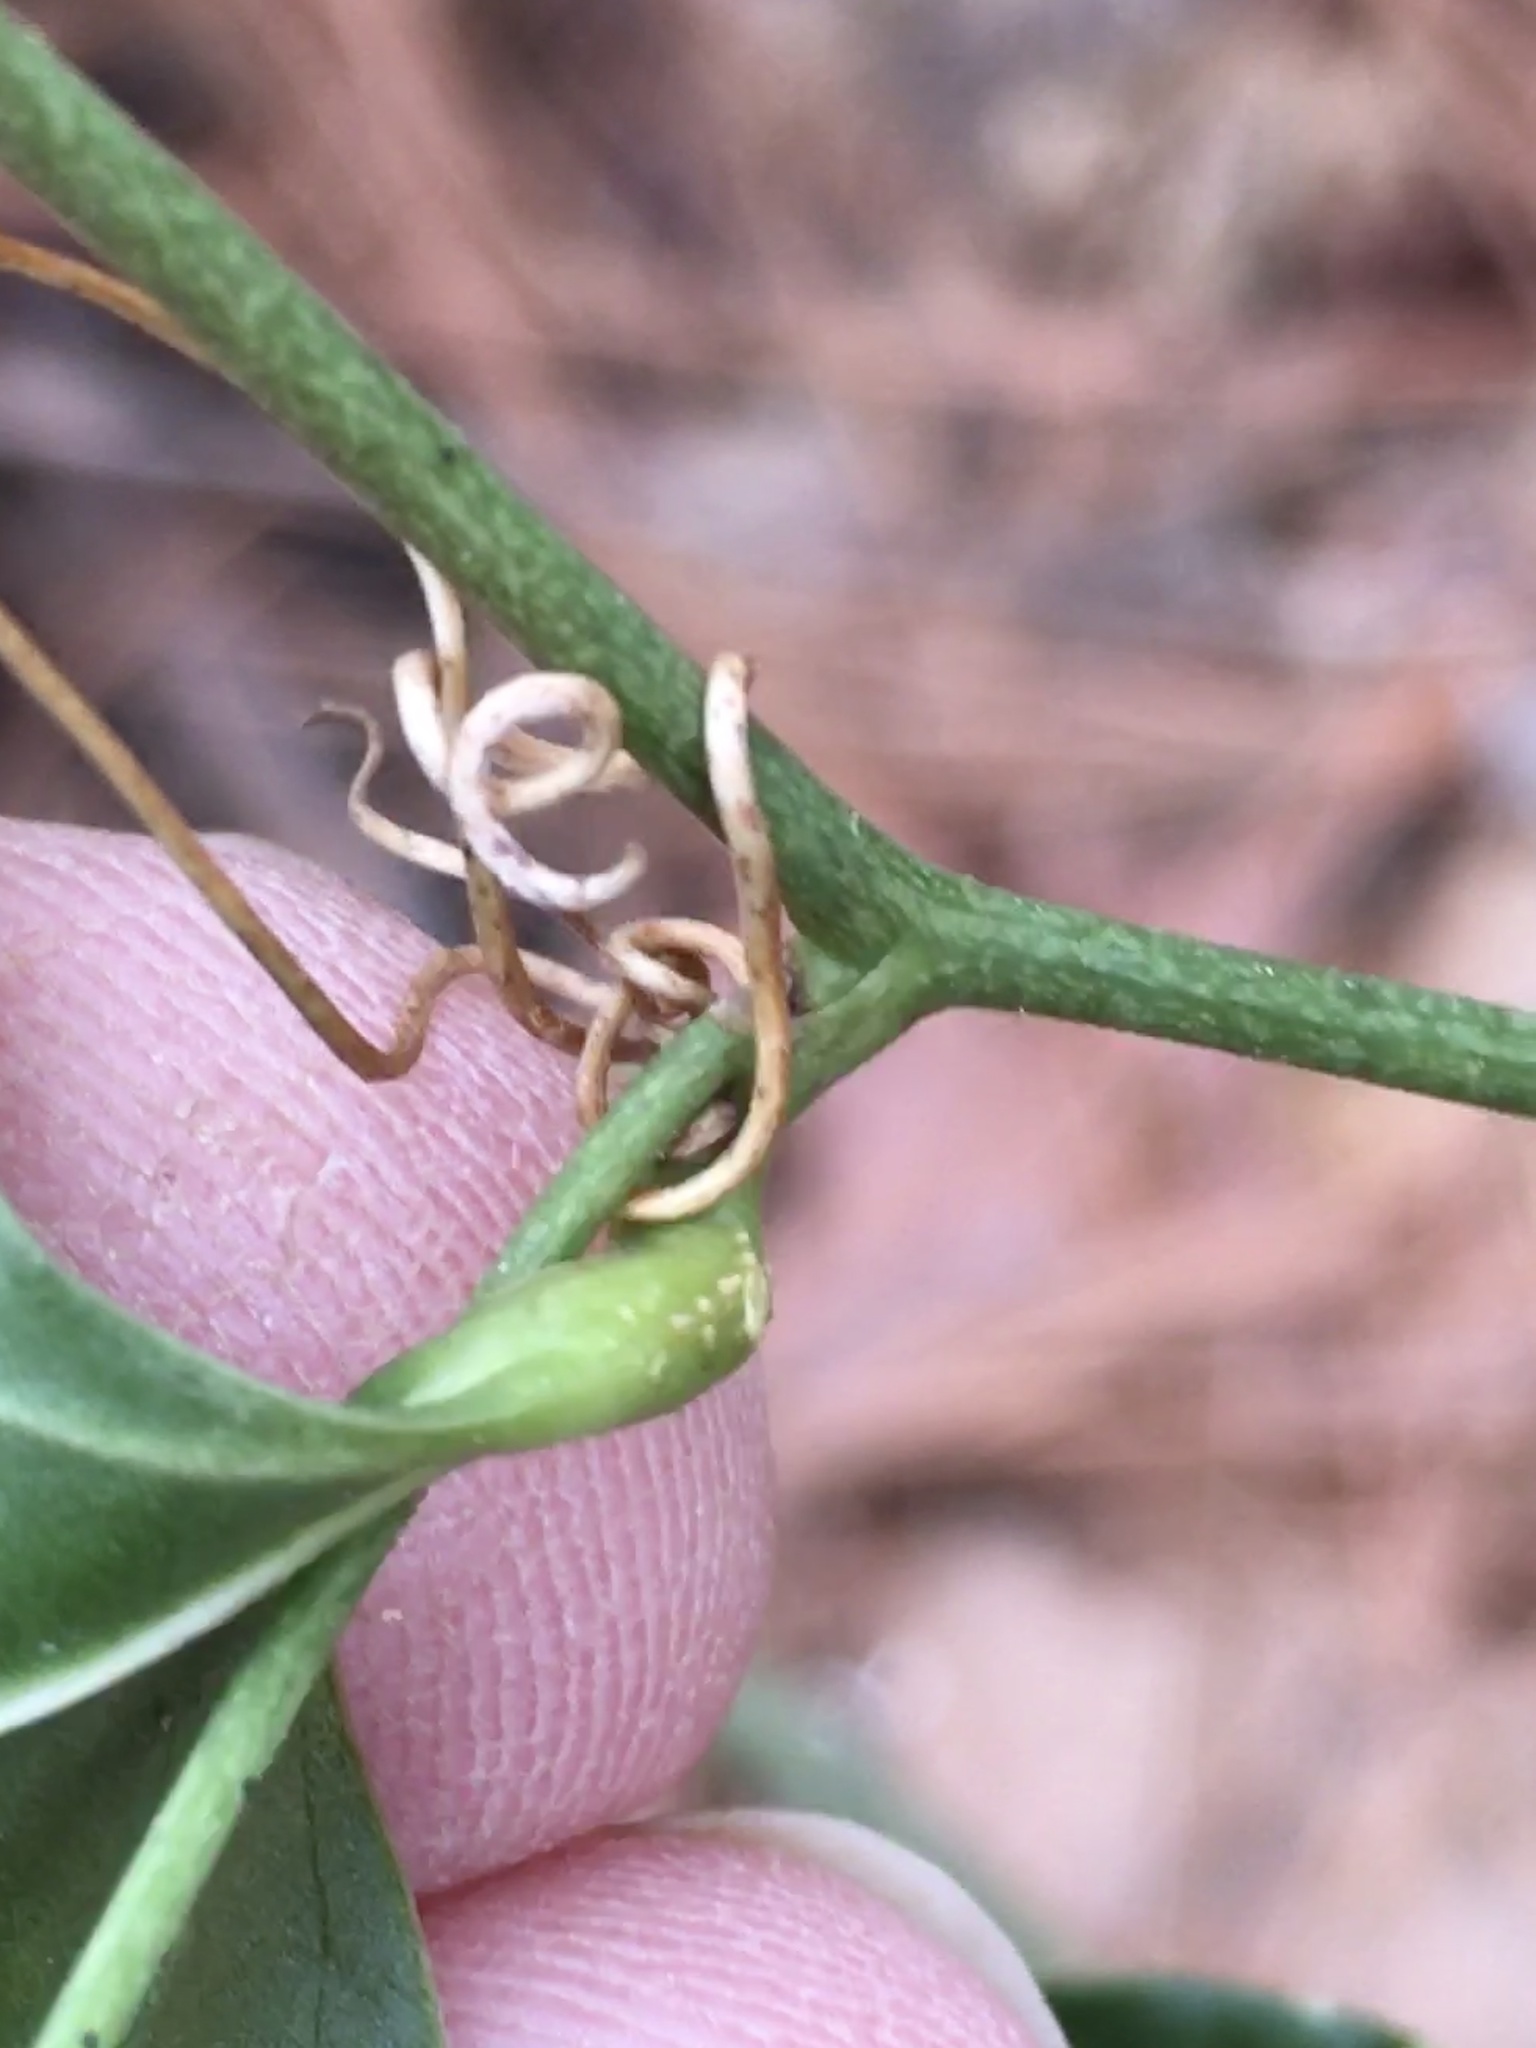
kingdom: Plantae
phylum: Tracheophyta
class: Liliopsida
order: Liliales
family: Smilacaceae
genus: Smilax
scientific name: Smilax maritima
